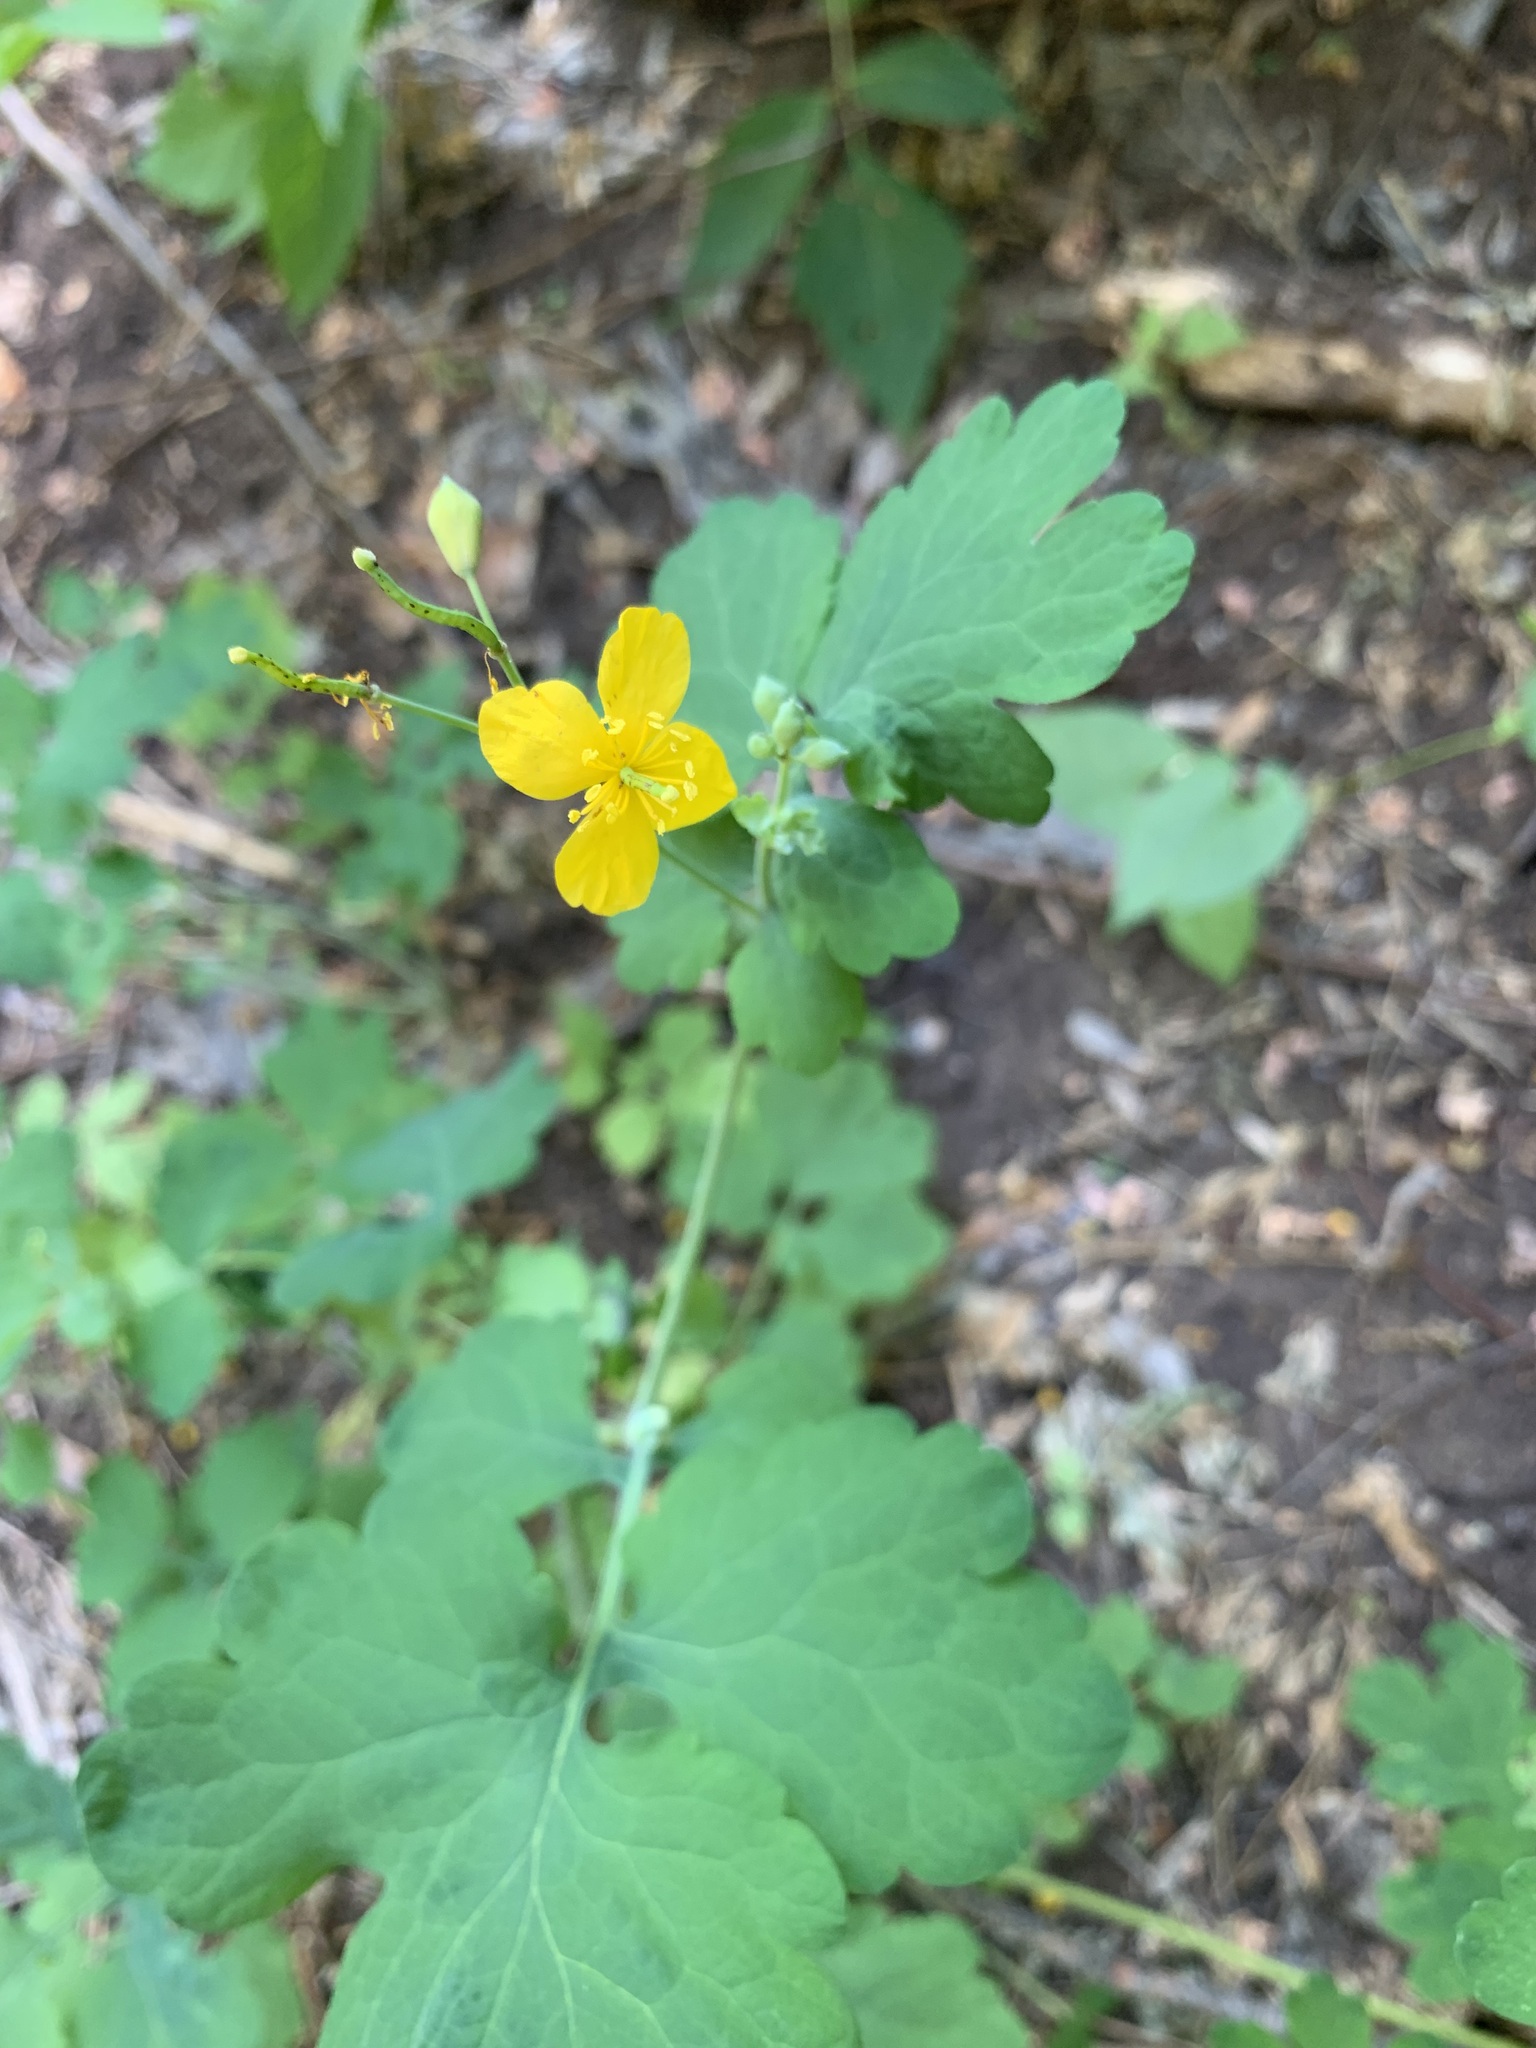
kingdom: Plantae
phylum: Tracheophyta
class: Magnoliopsida
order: Ranunculales
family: Papaveraceae
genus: Chelidonium
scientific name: Chelidonium majus
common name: Greater celandine
